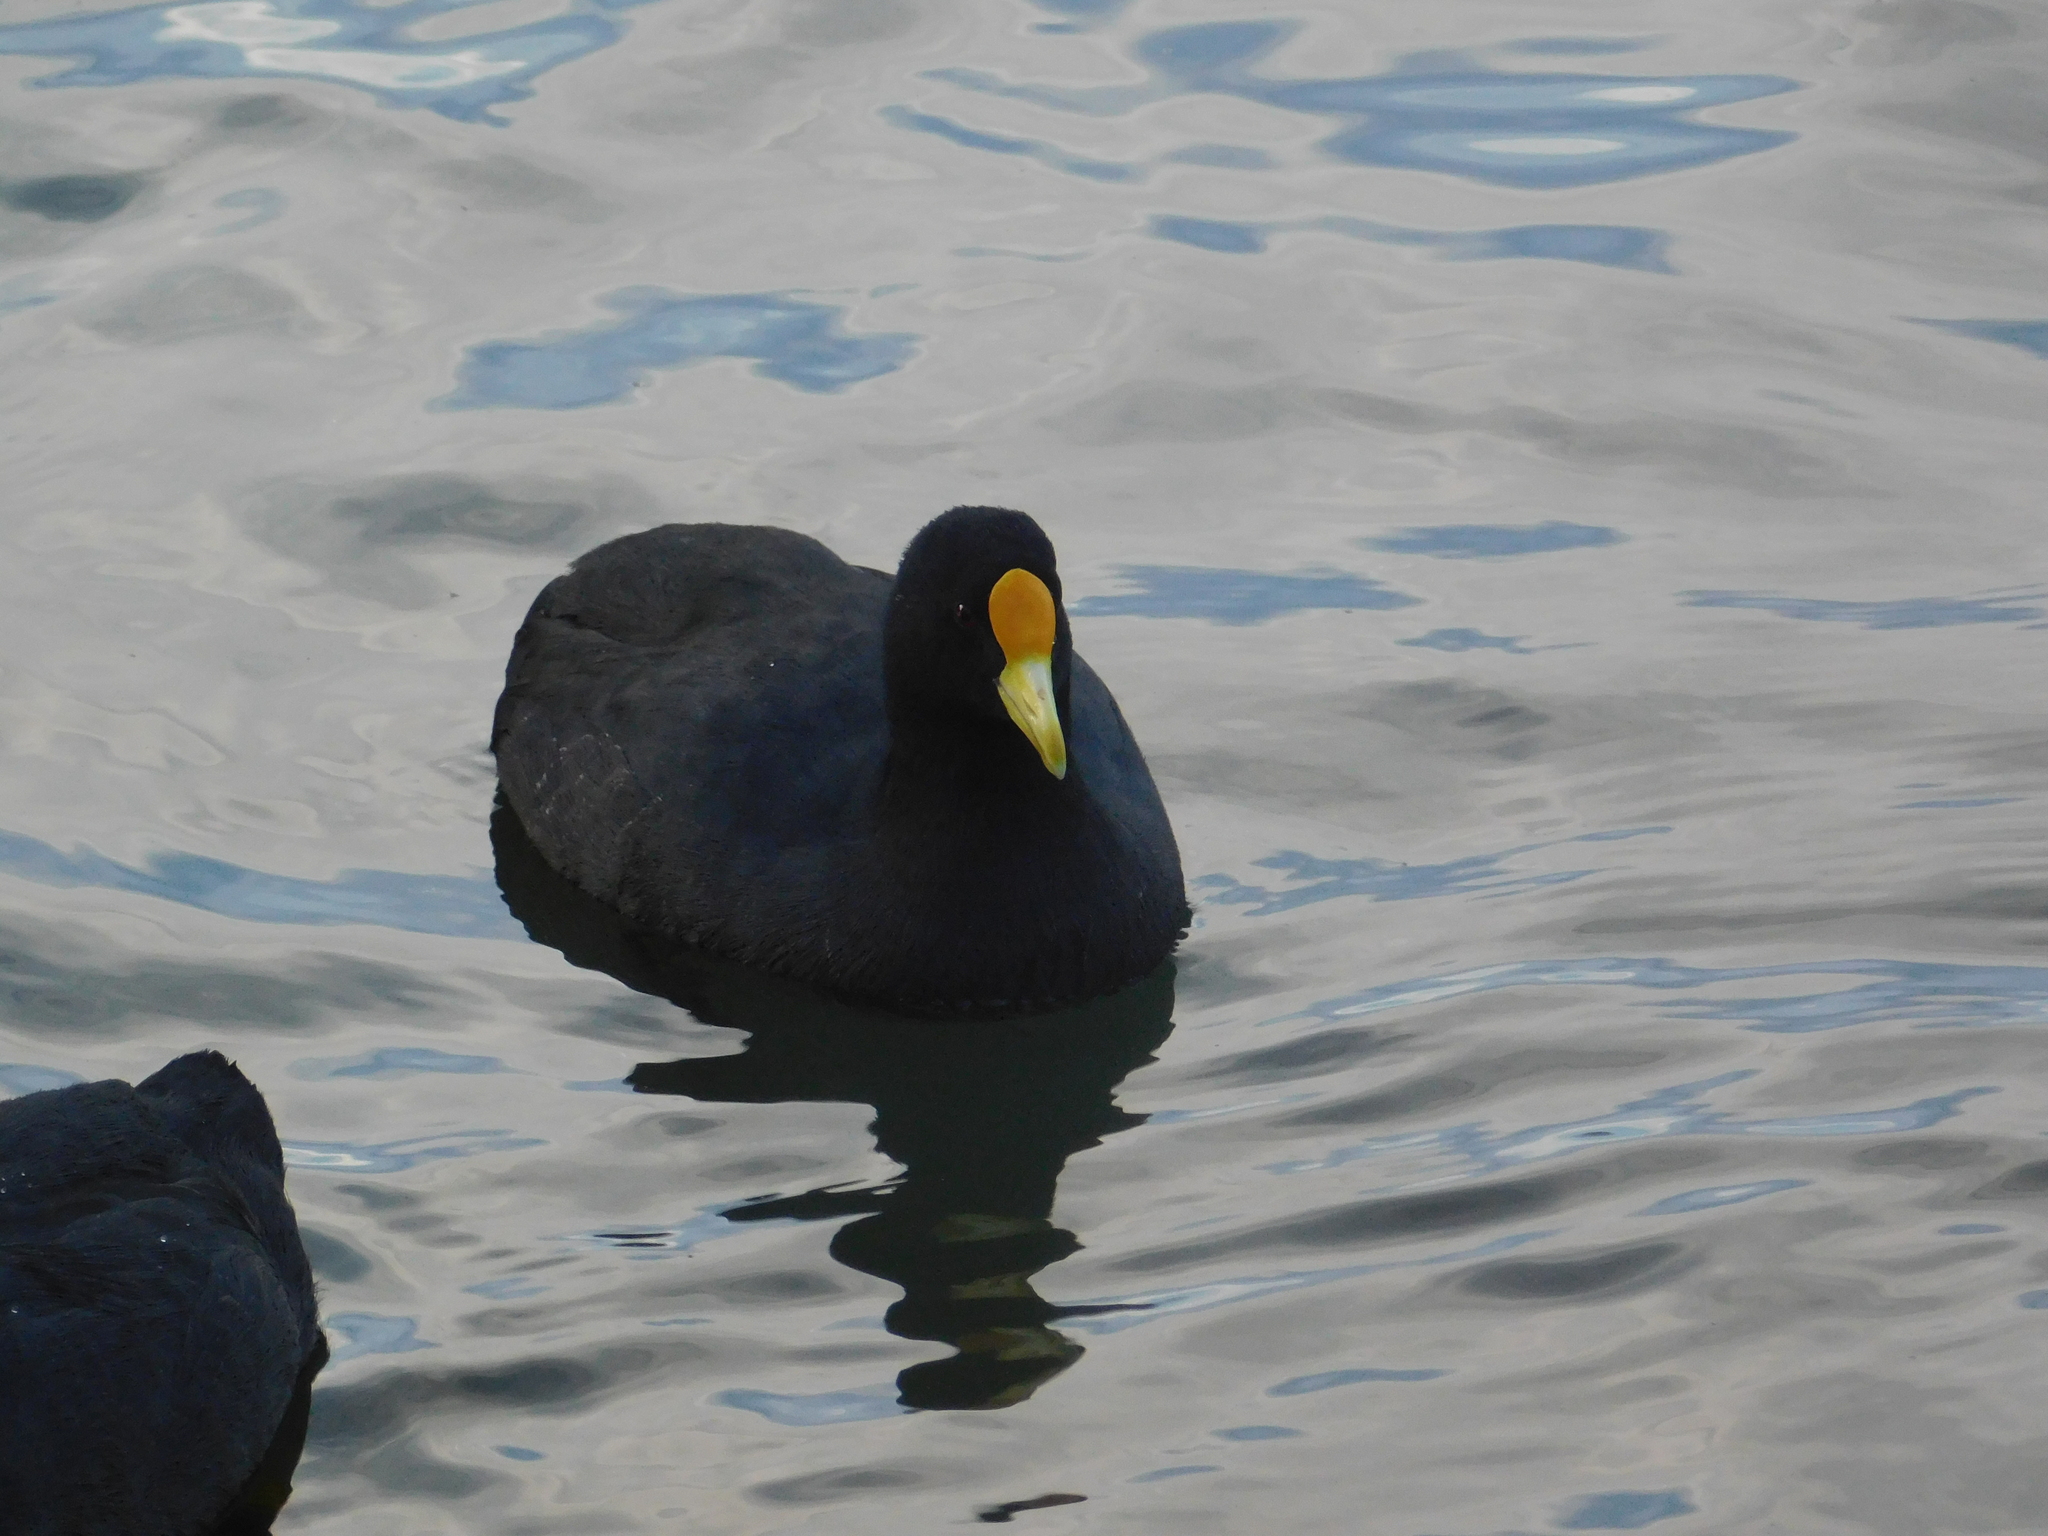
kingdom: Animalia
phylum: Chordata
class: Aves
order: Gruiformes
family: Rallidae
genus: Fulica
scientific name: Fulica leucoptera
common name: White-winged coot
